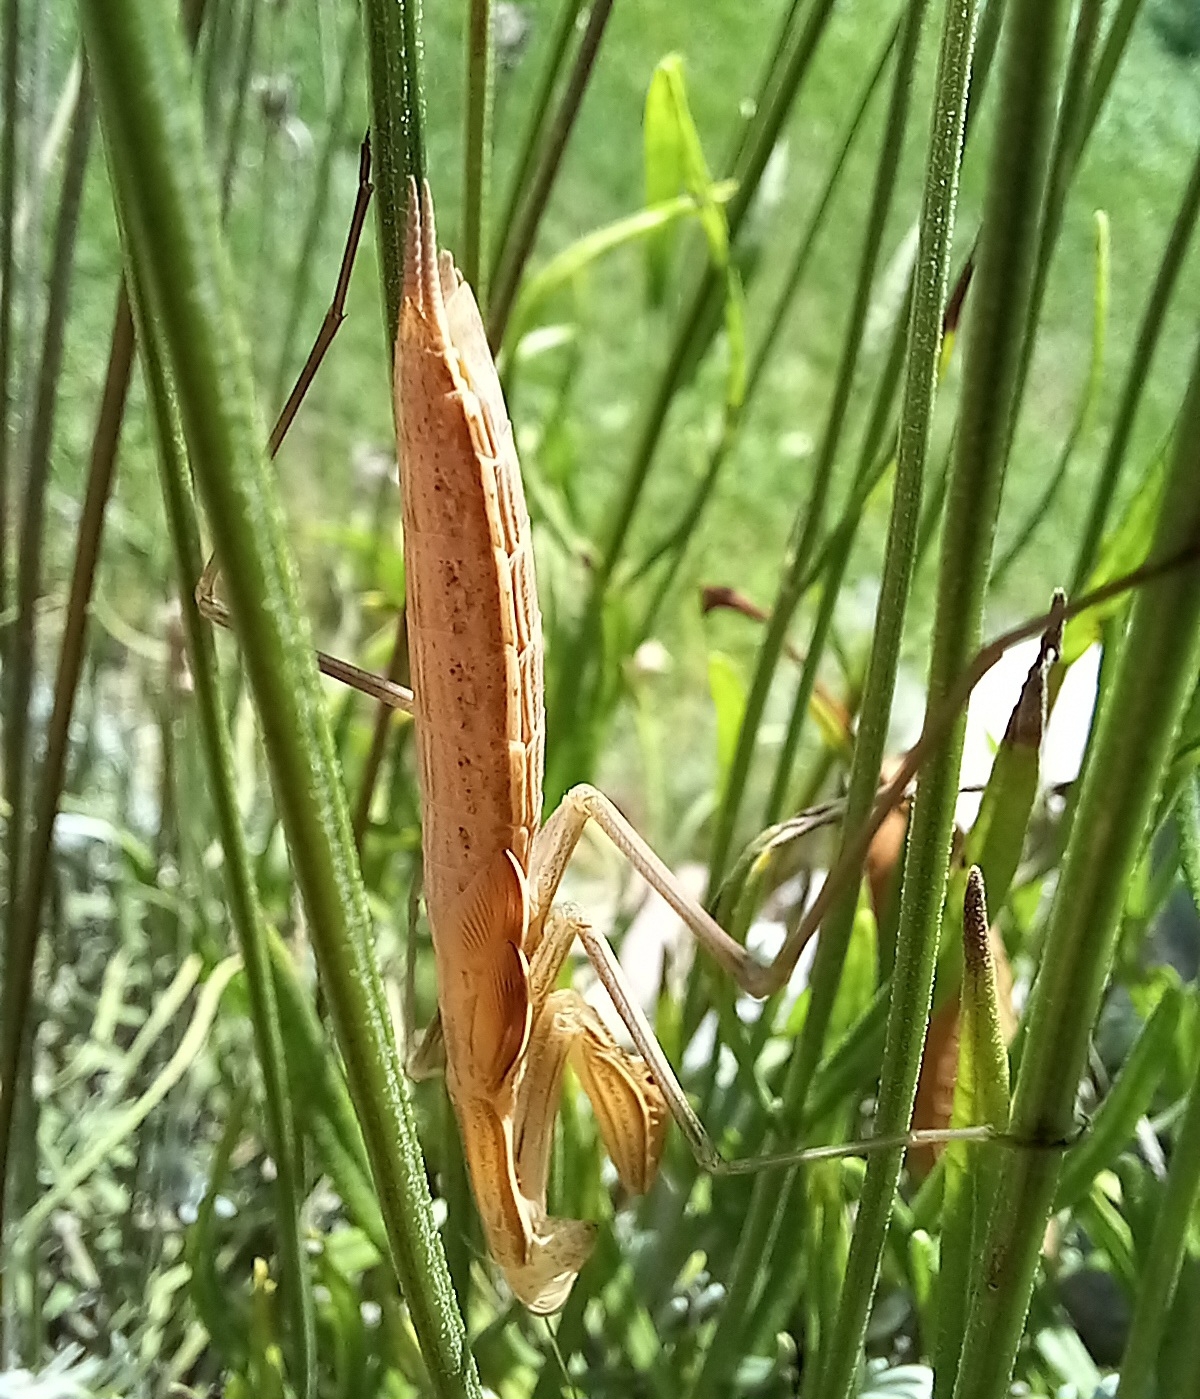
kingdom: Animalia
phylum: Arthropoda
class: Insecta
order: Mantodea
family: Mantidae
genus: Mantis
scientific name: Mantis religiosa
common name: Praying mantis
